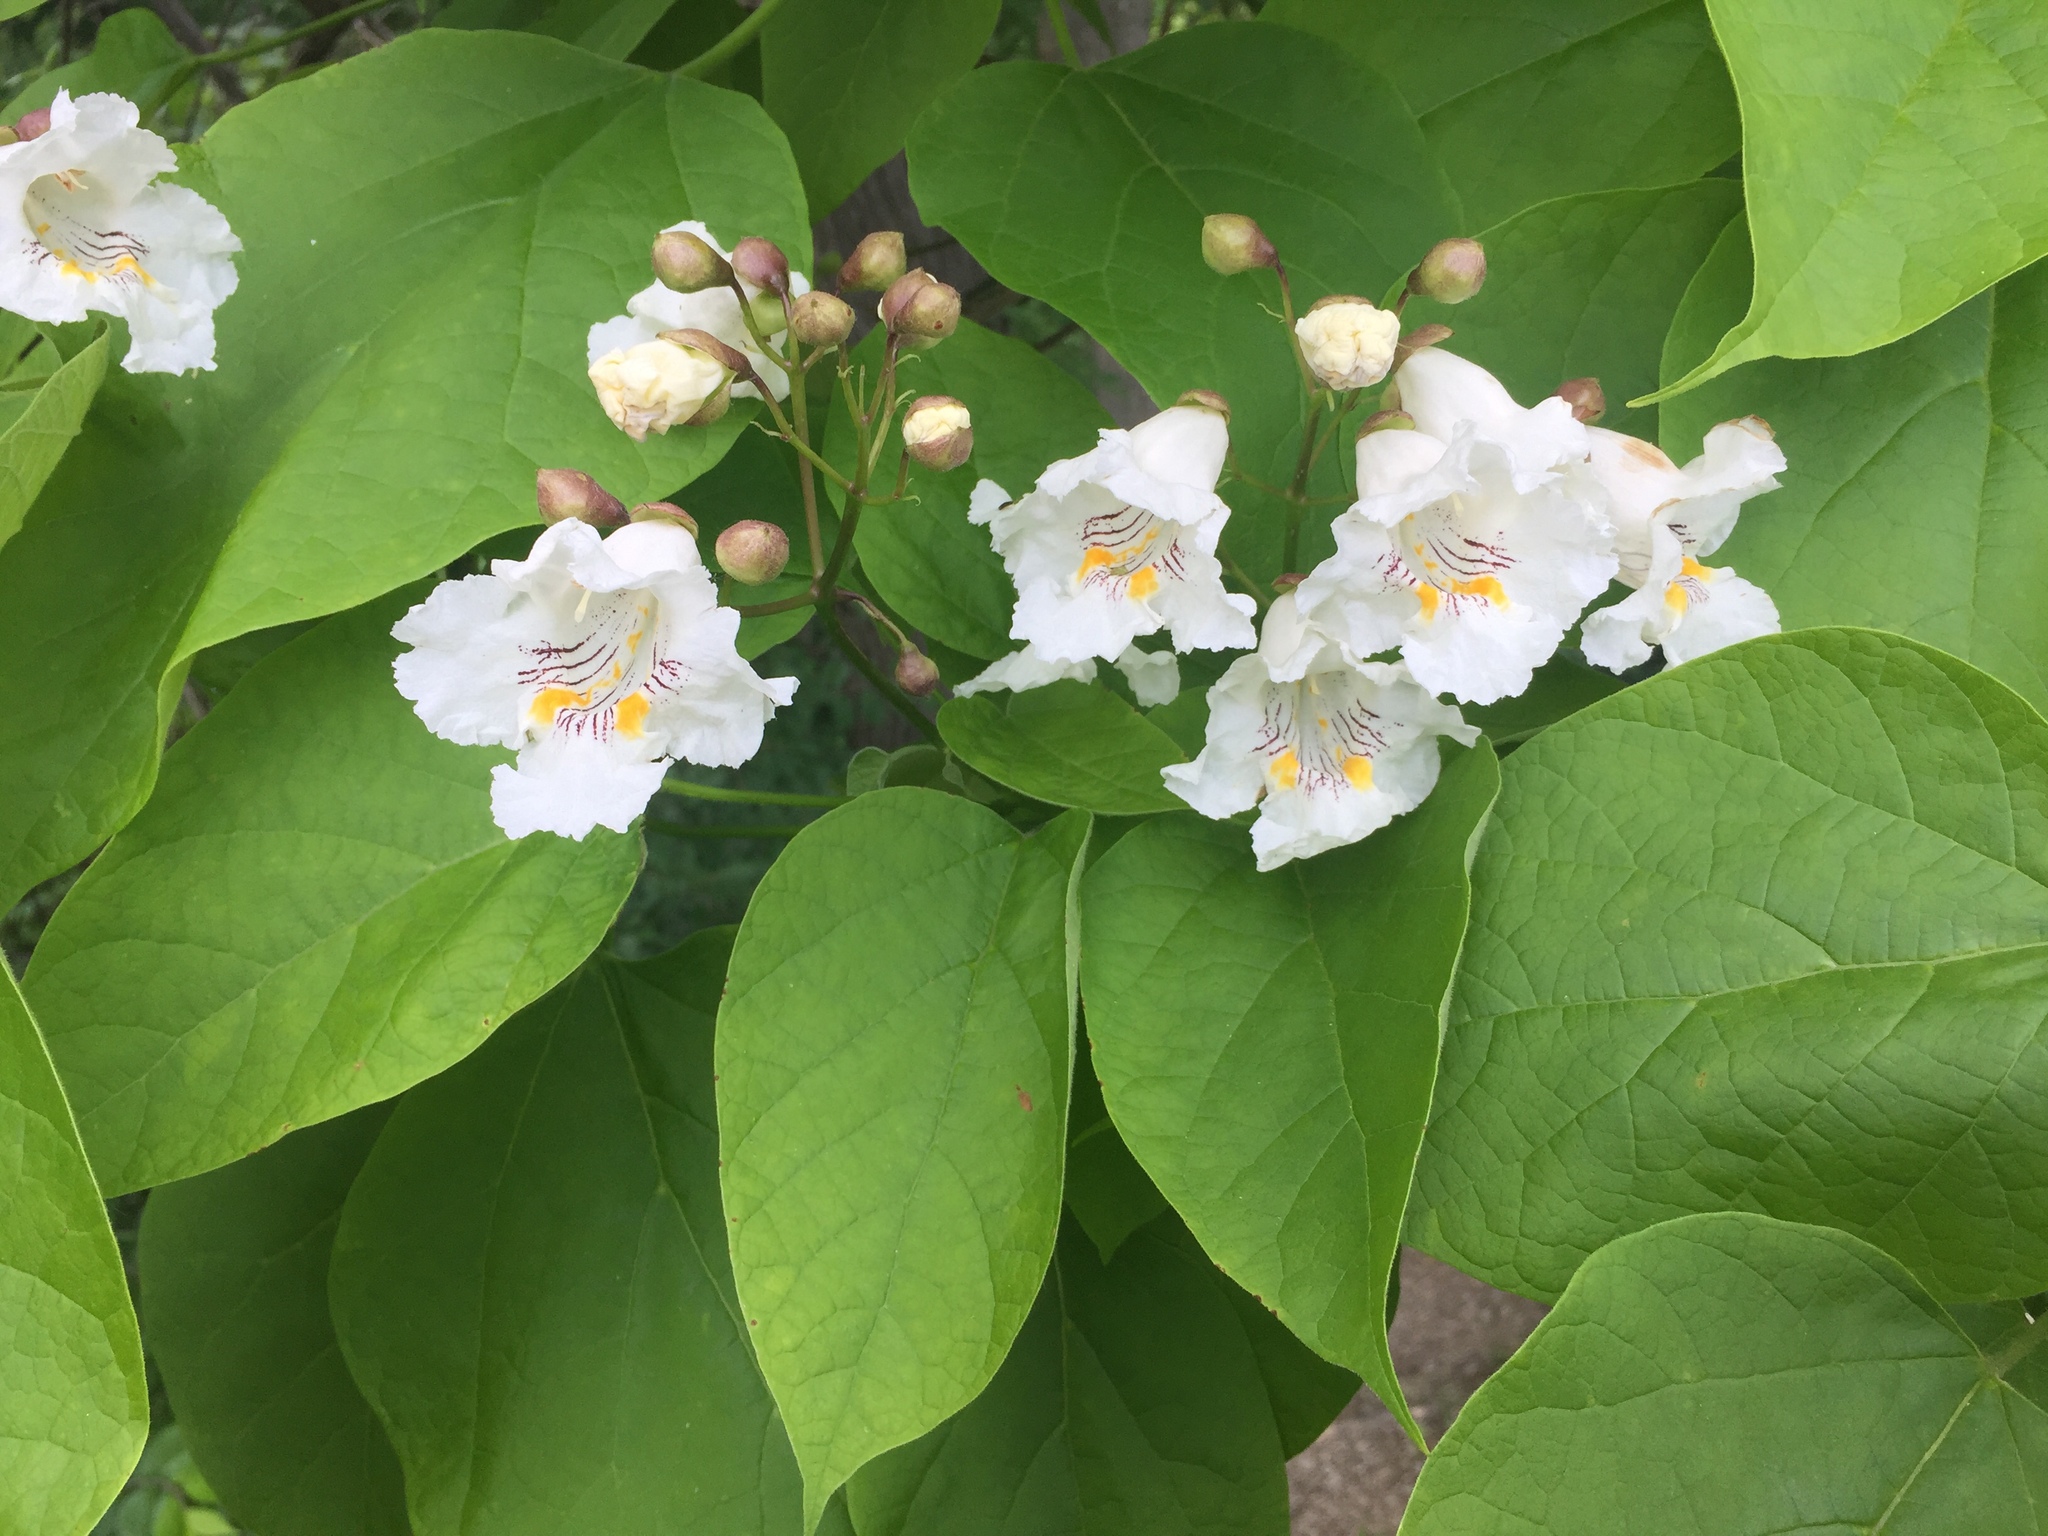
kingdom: Plantae
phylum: Tracheophyta
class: Magnoliopsida
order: Lamiales
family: Bignoniaceae
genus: Catalpa
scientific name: Catalpa speciosa
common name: Northern catalpa
